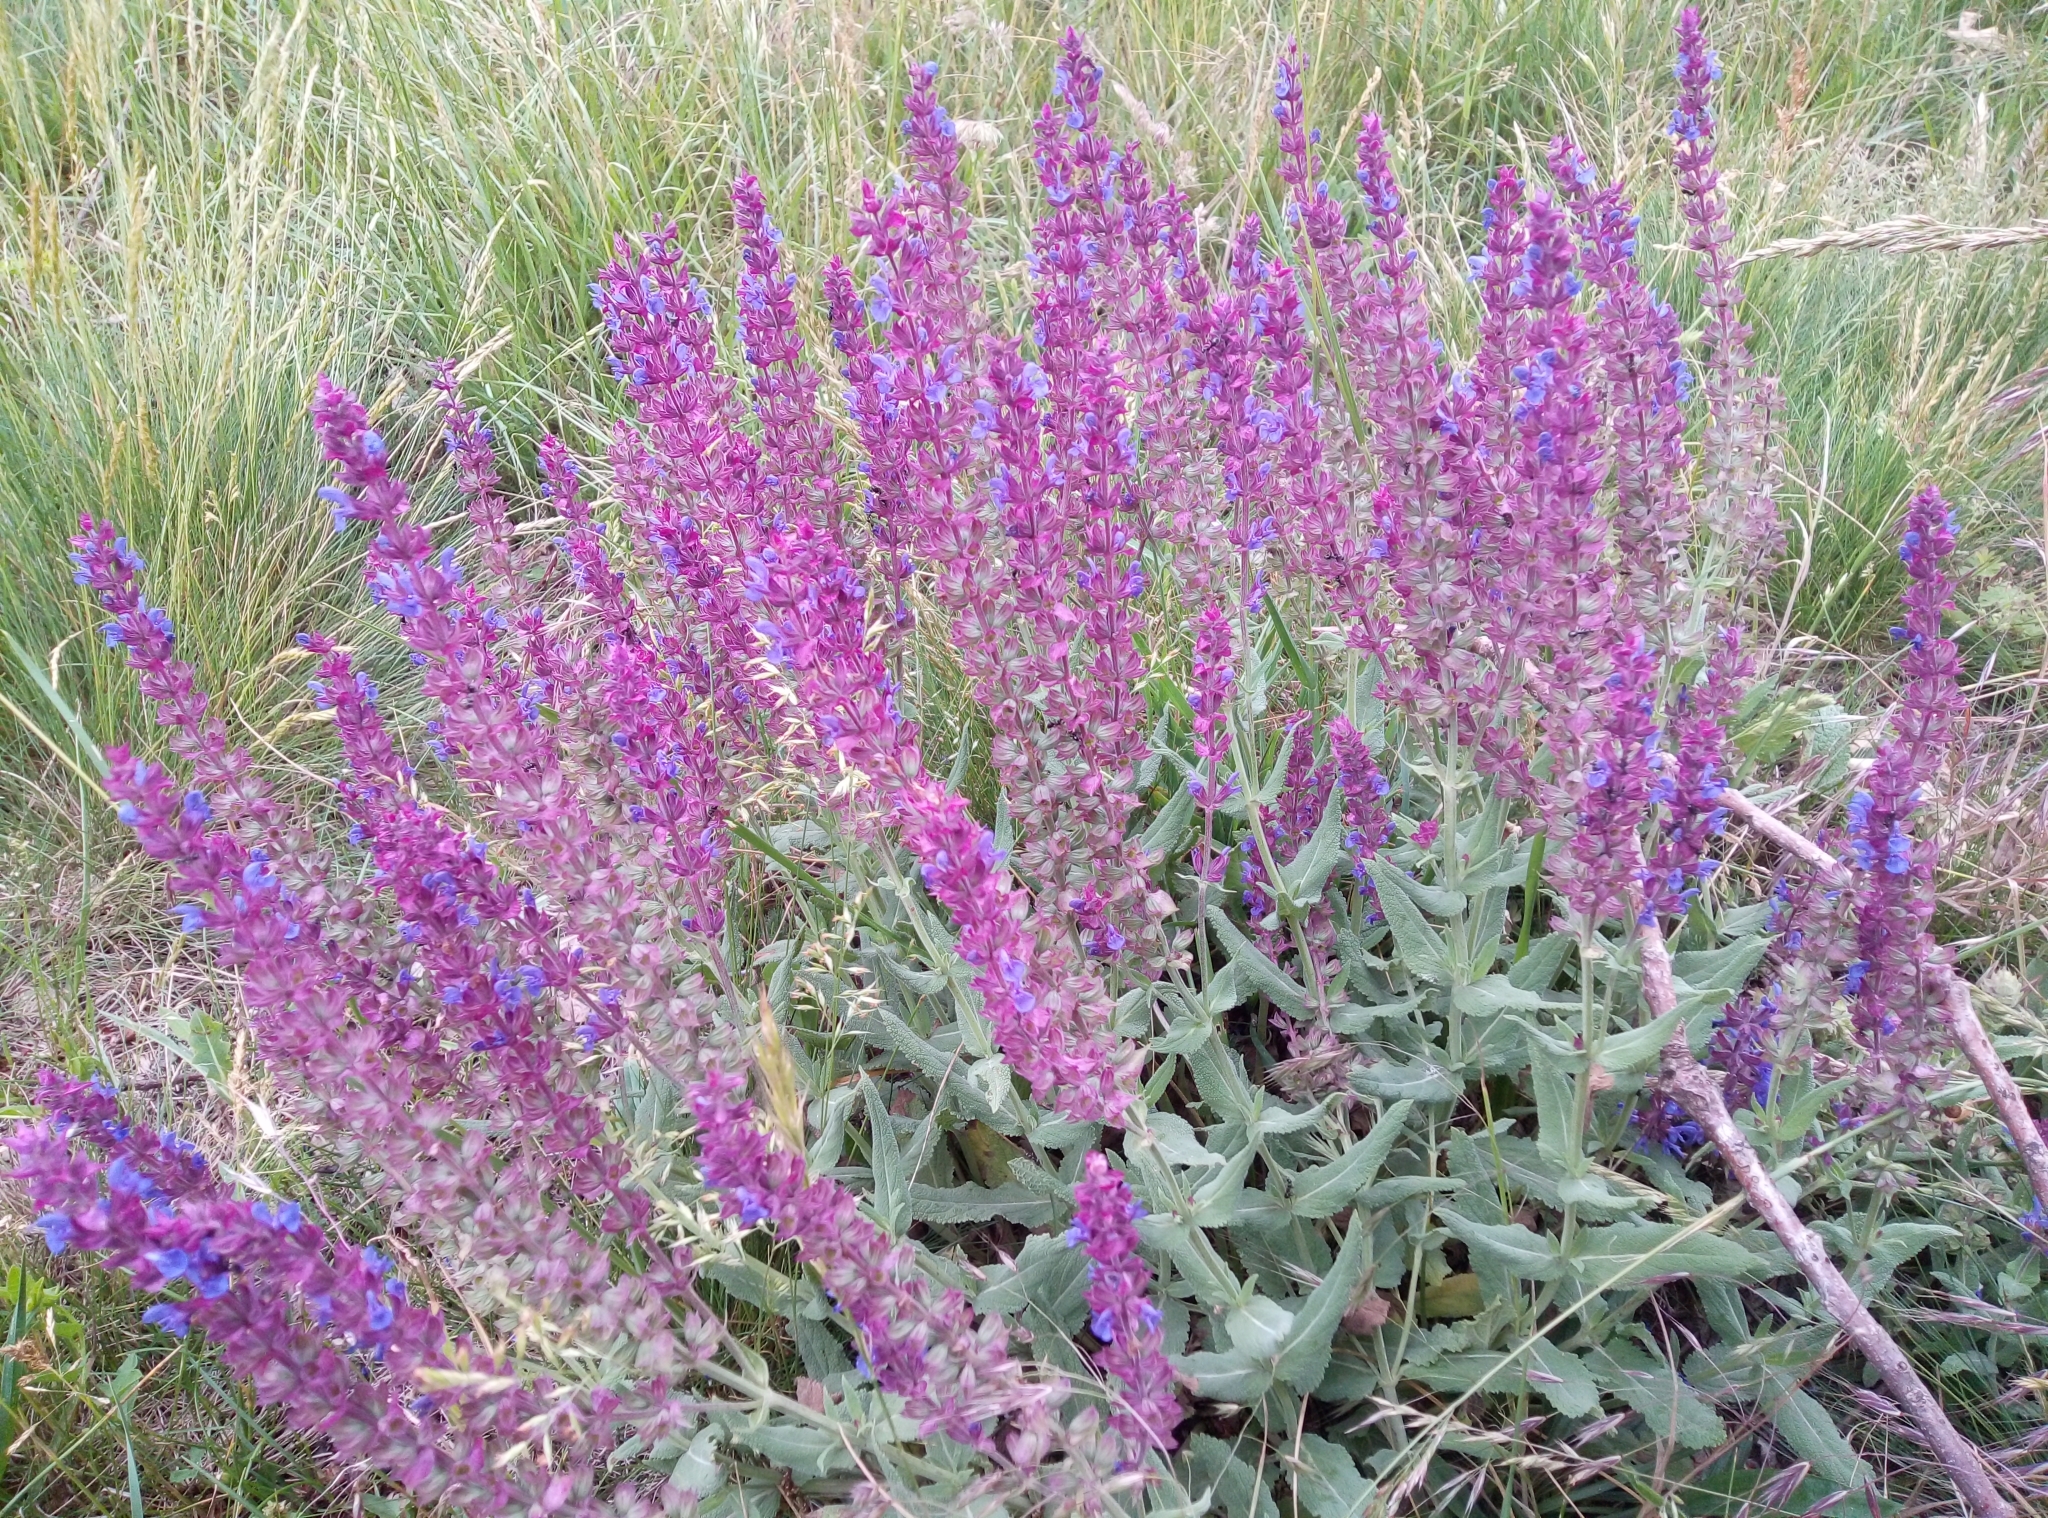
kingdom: Plantae
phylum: Tracheophyta
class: Magnoliopsida
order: Lamiales
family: Lamiaceae
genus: Salvia
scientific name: Salvia nemorosa
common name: Balkan clary
